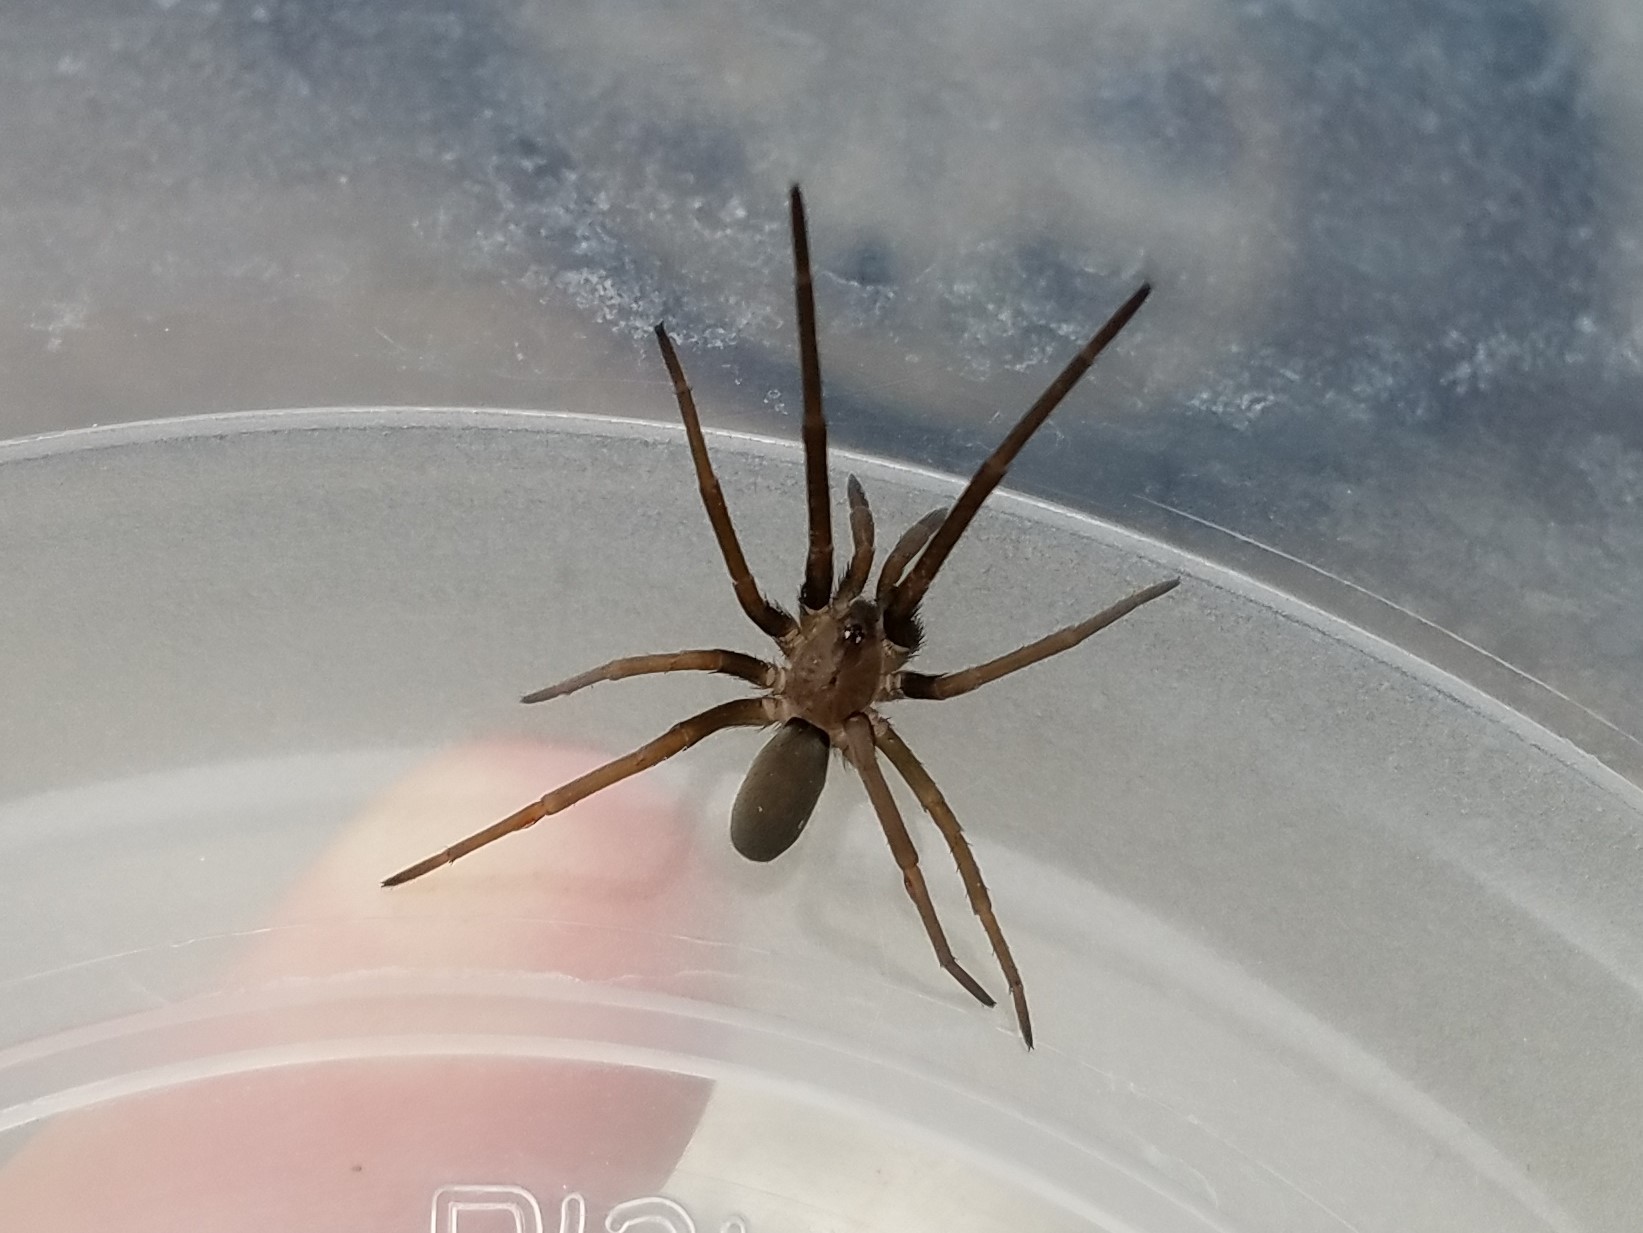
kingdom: Animalia
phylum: Arthropoda
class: Arachnida
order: Araneae
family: Filistatidae
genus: Kukulcania
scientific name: Kukulcania hibernalis
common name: Crevice weaver
